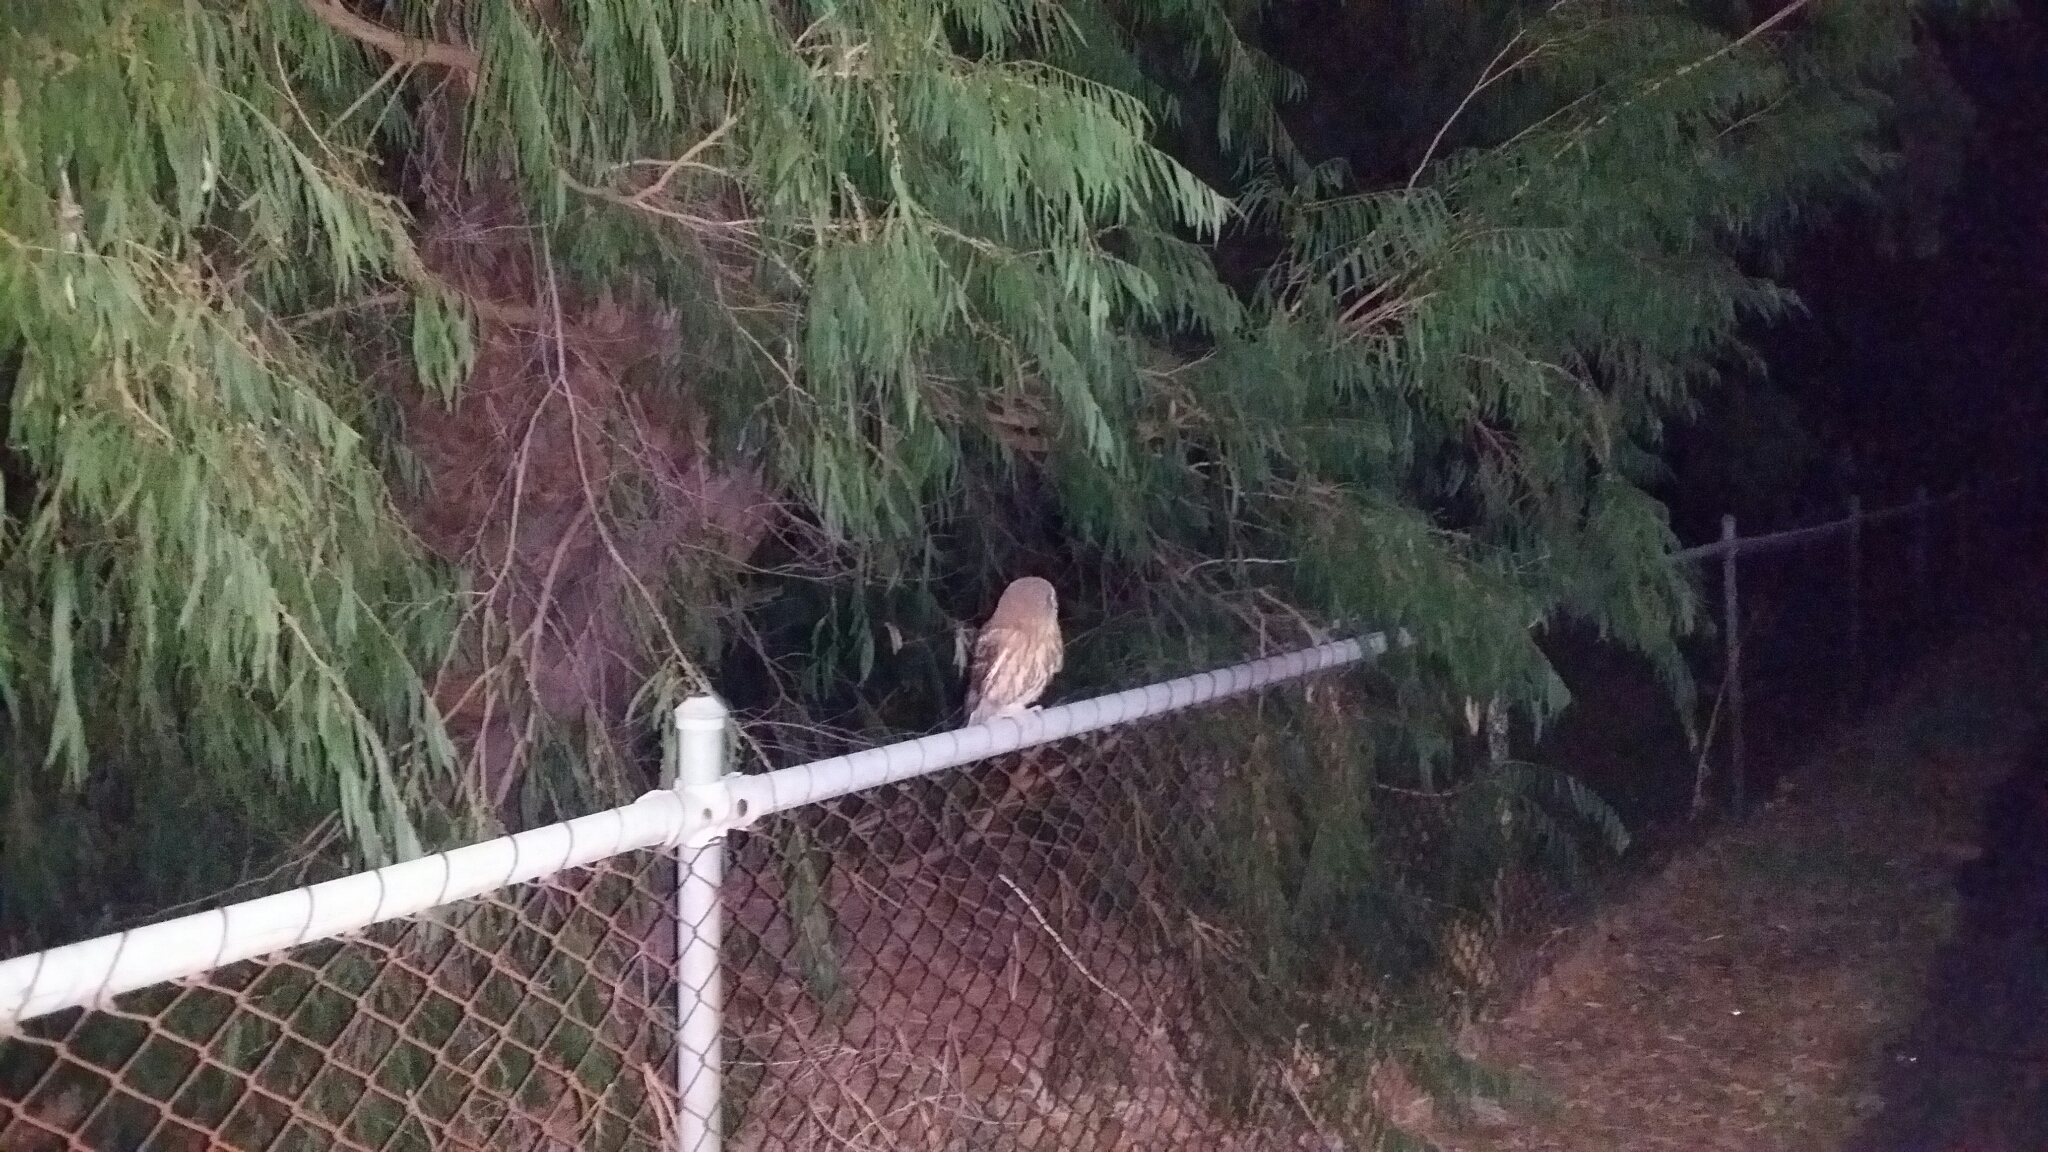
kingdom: Animalia
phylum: Chordata
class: Aves
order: Strigiformes
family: Strigidae
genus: Ninox
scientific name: Ninox boobook
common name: Southern boobook
